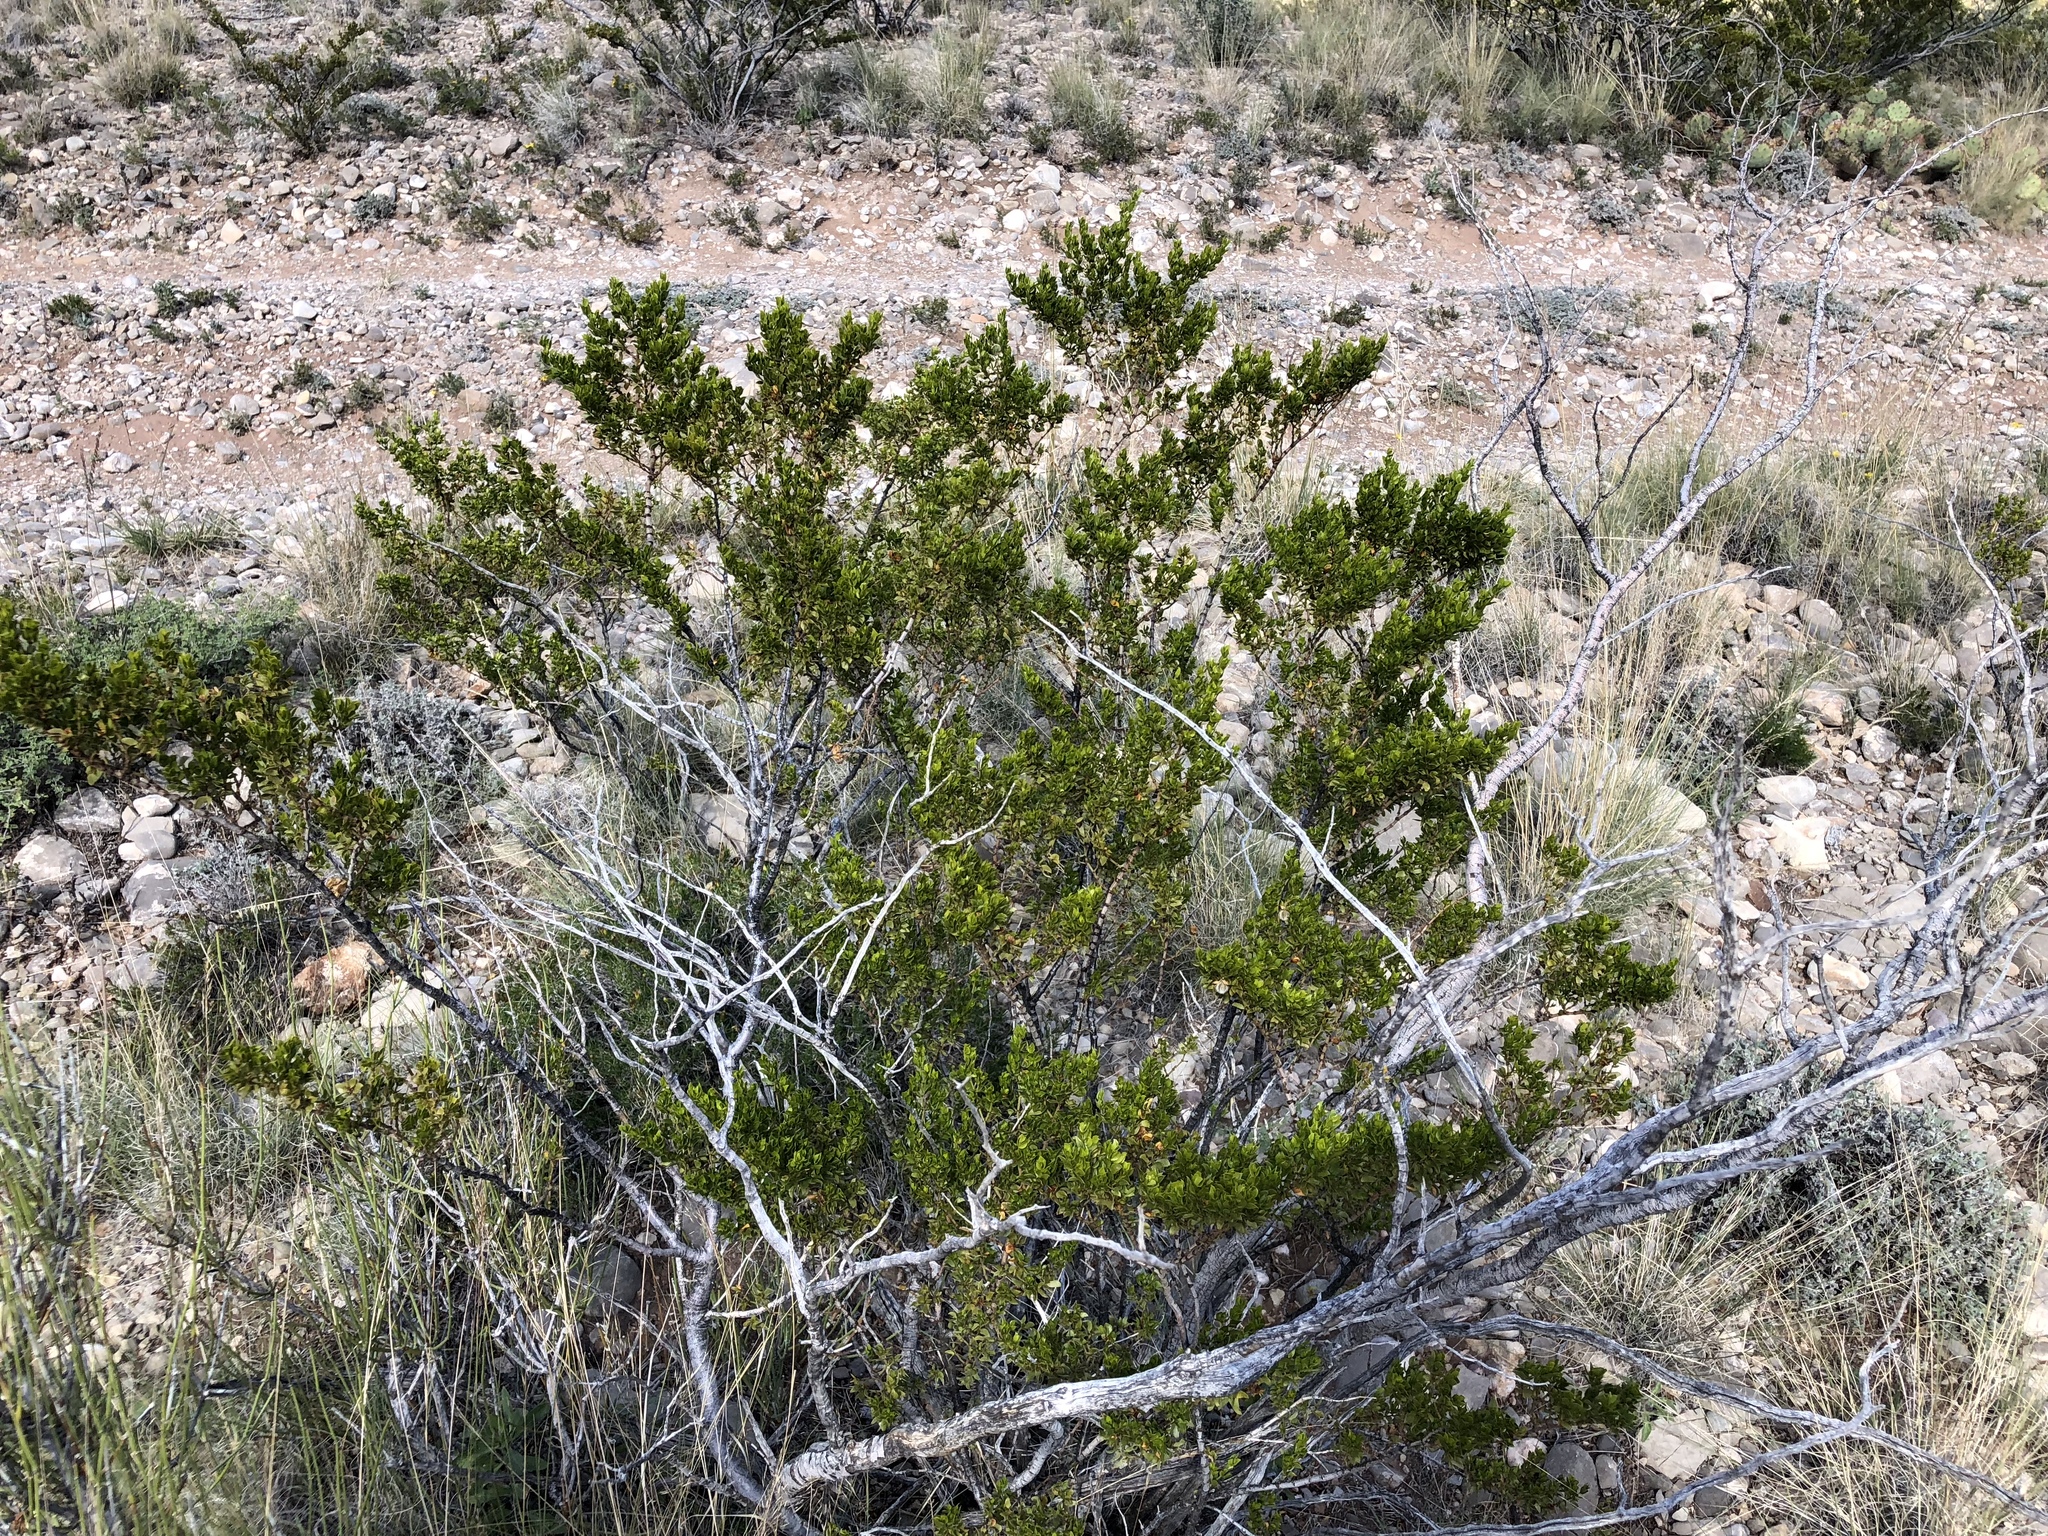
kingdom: Plantae
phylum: Tracheophyta
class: Magnoliopsida
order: Zygophyllales
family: Zygophyllaceae
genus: Larrea
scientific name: Larrea tridentata
